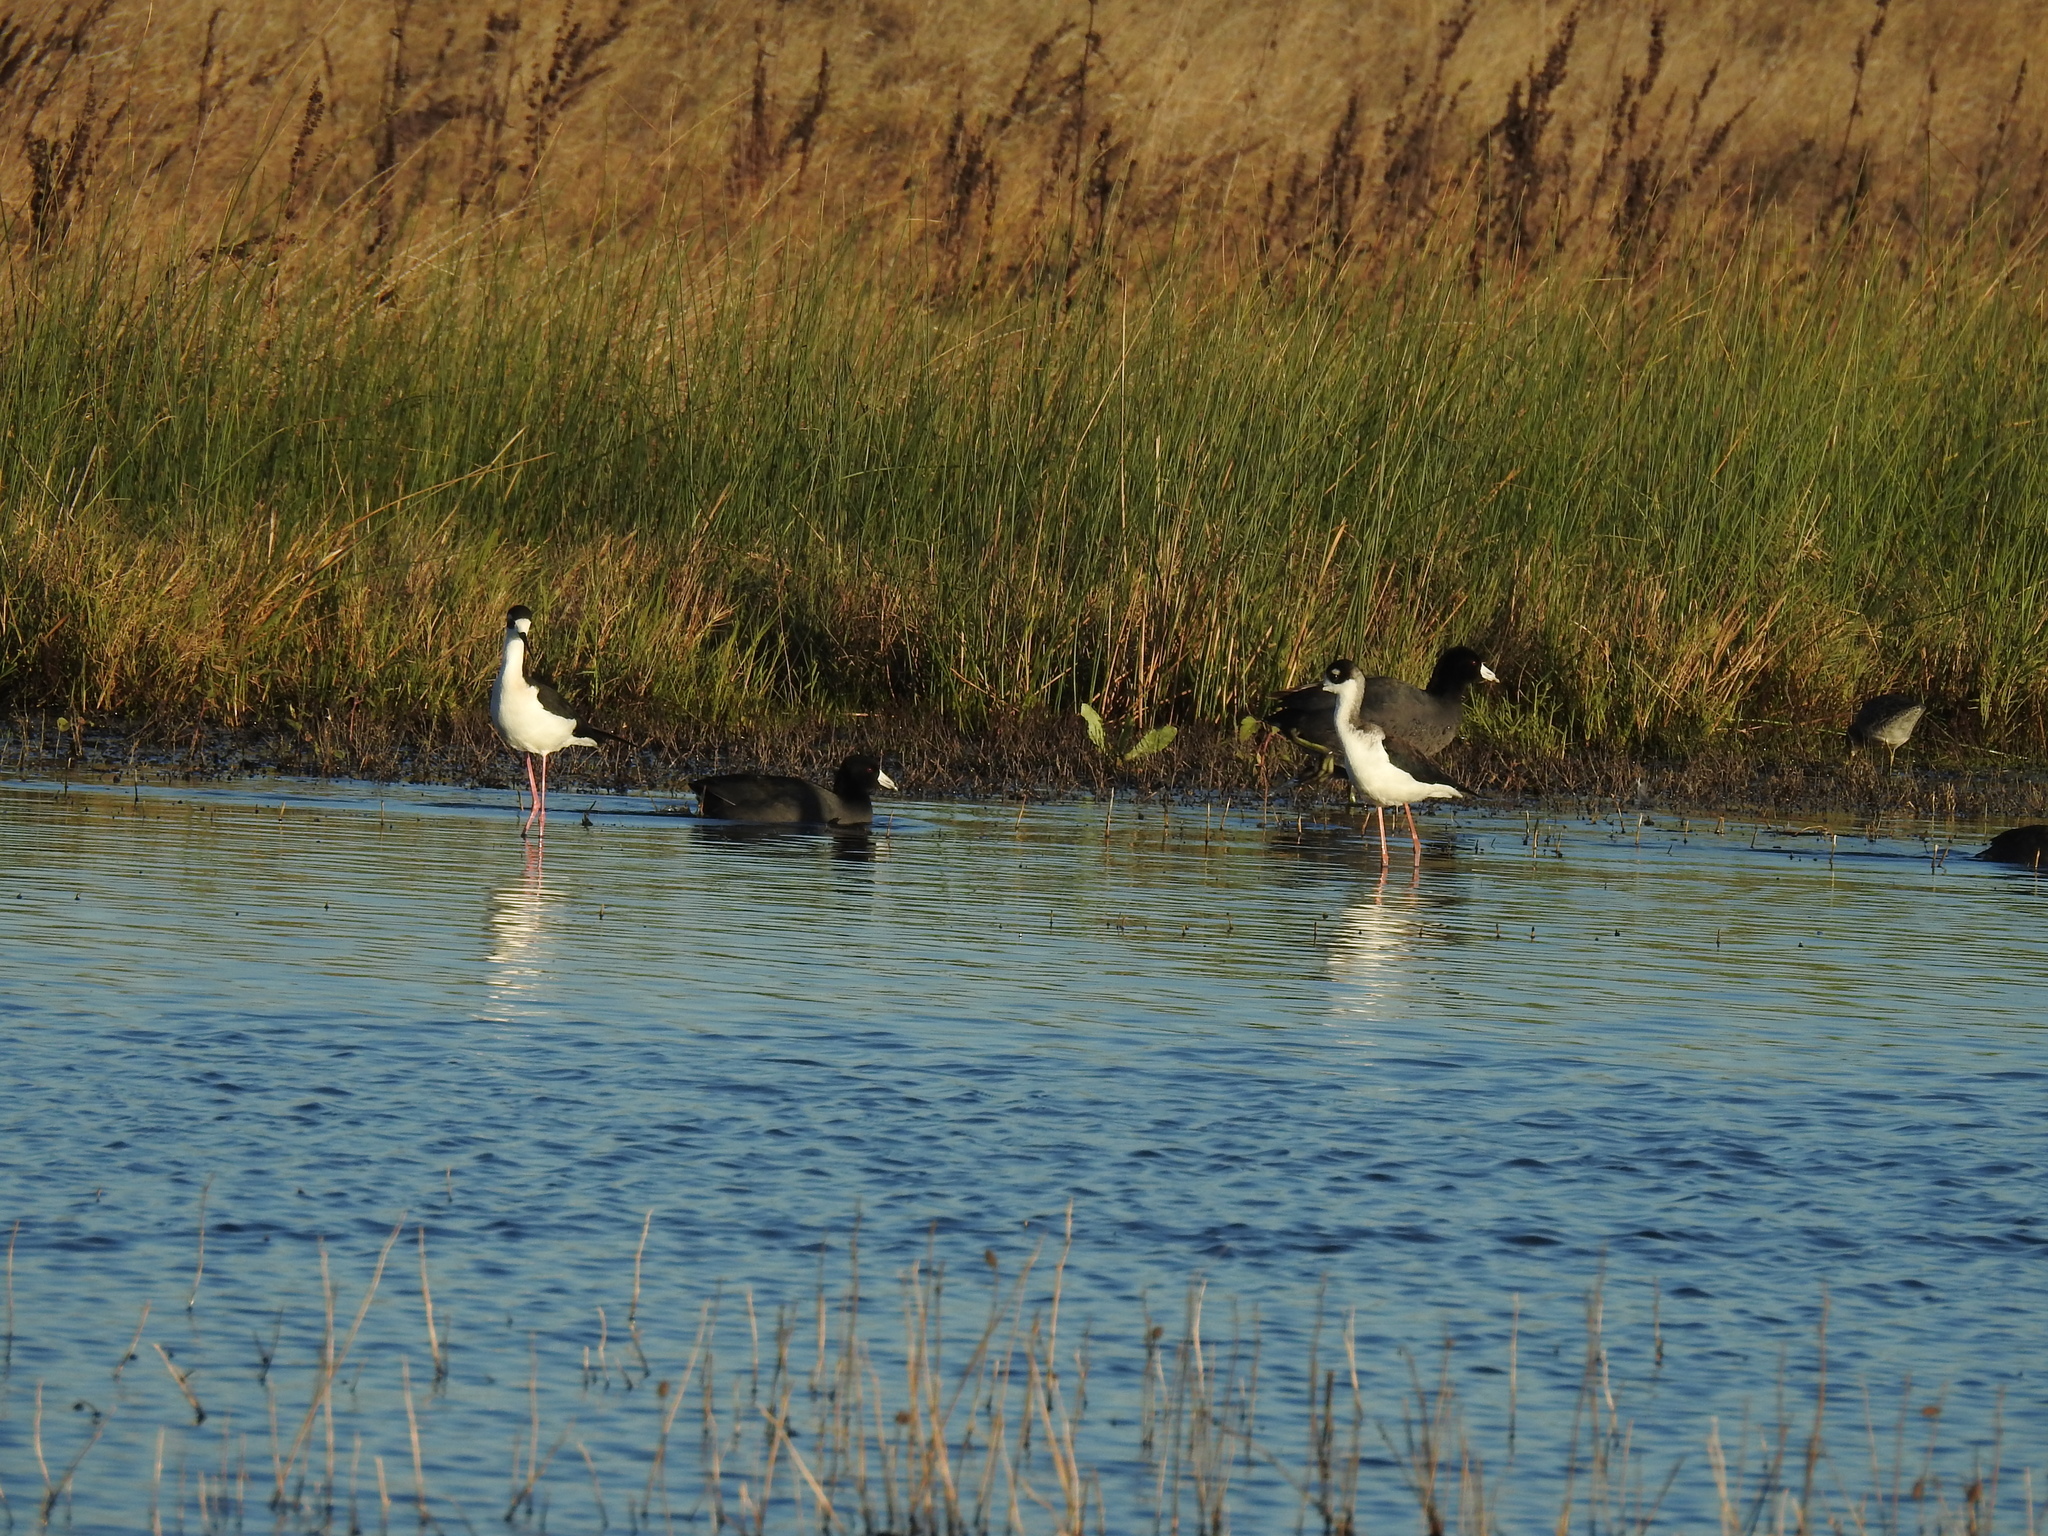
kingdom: Animalia
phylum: Chordata
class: Aves
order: Gruiformes
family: Rallidae
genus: Fulica
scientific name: Fulica americana
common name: American coot
